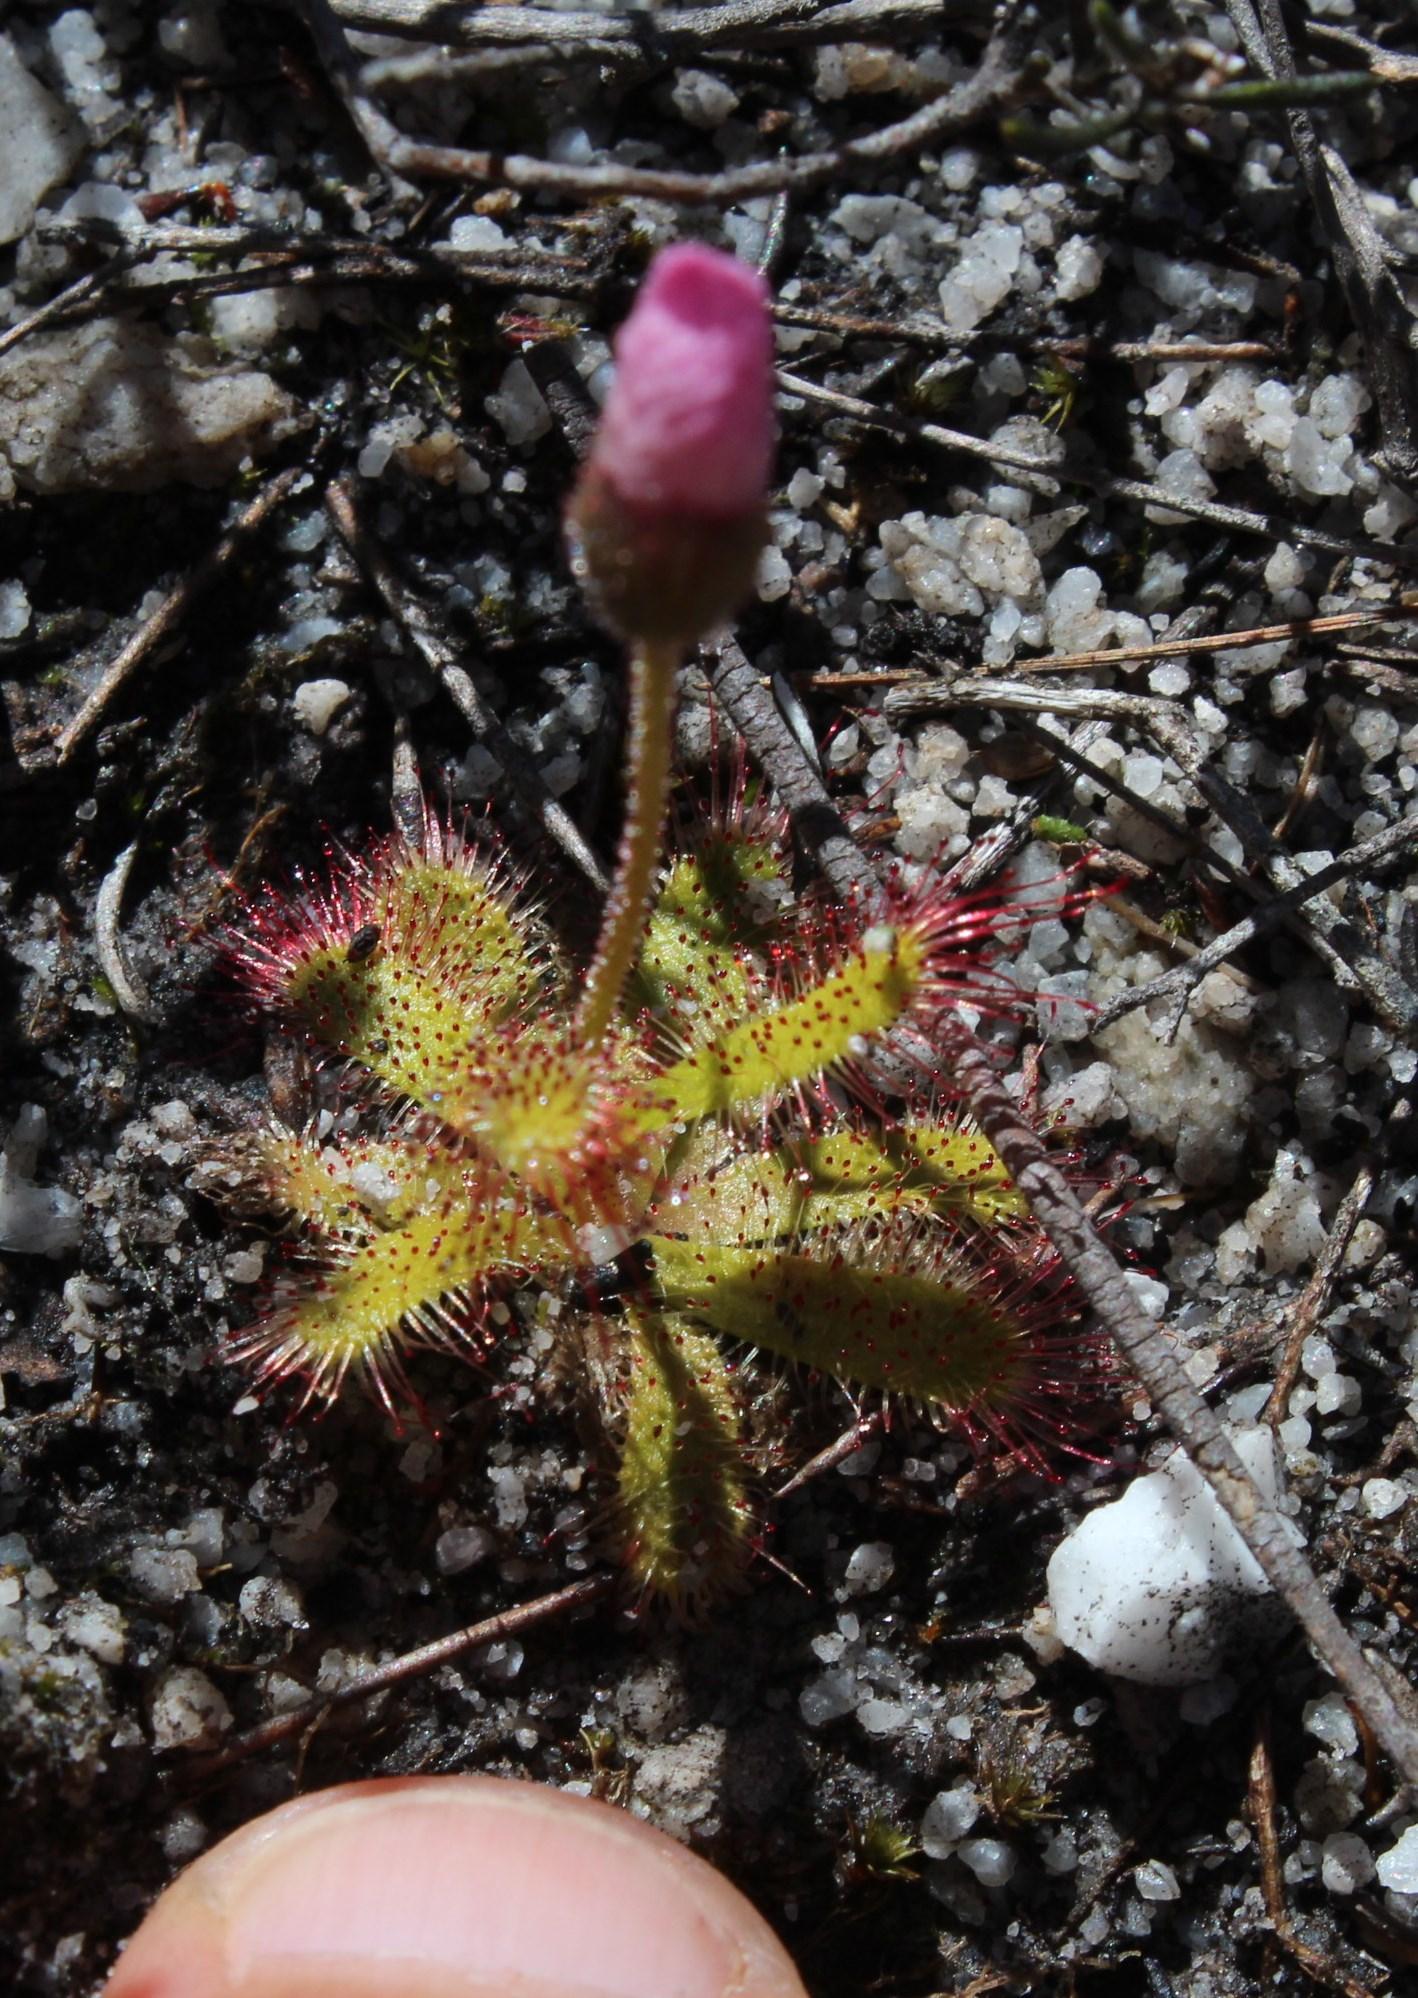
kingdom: Plantae
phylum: Tracheophyta
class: Magnoliopsida
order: Caryophyllales
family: Droseraceae
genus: Drosera
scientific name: Drosera cistiflora
